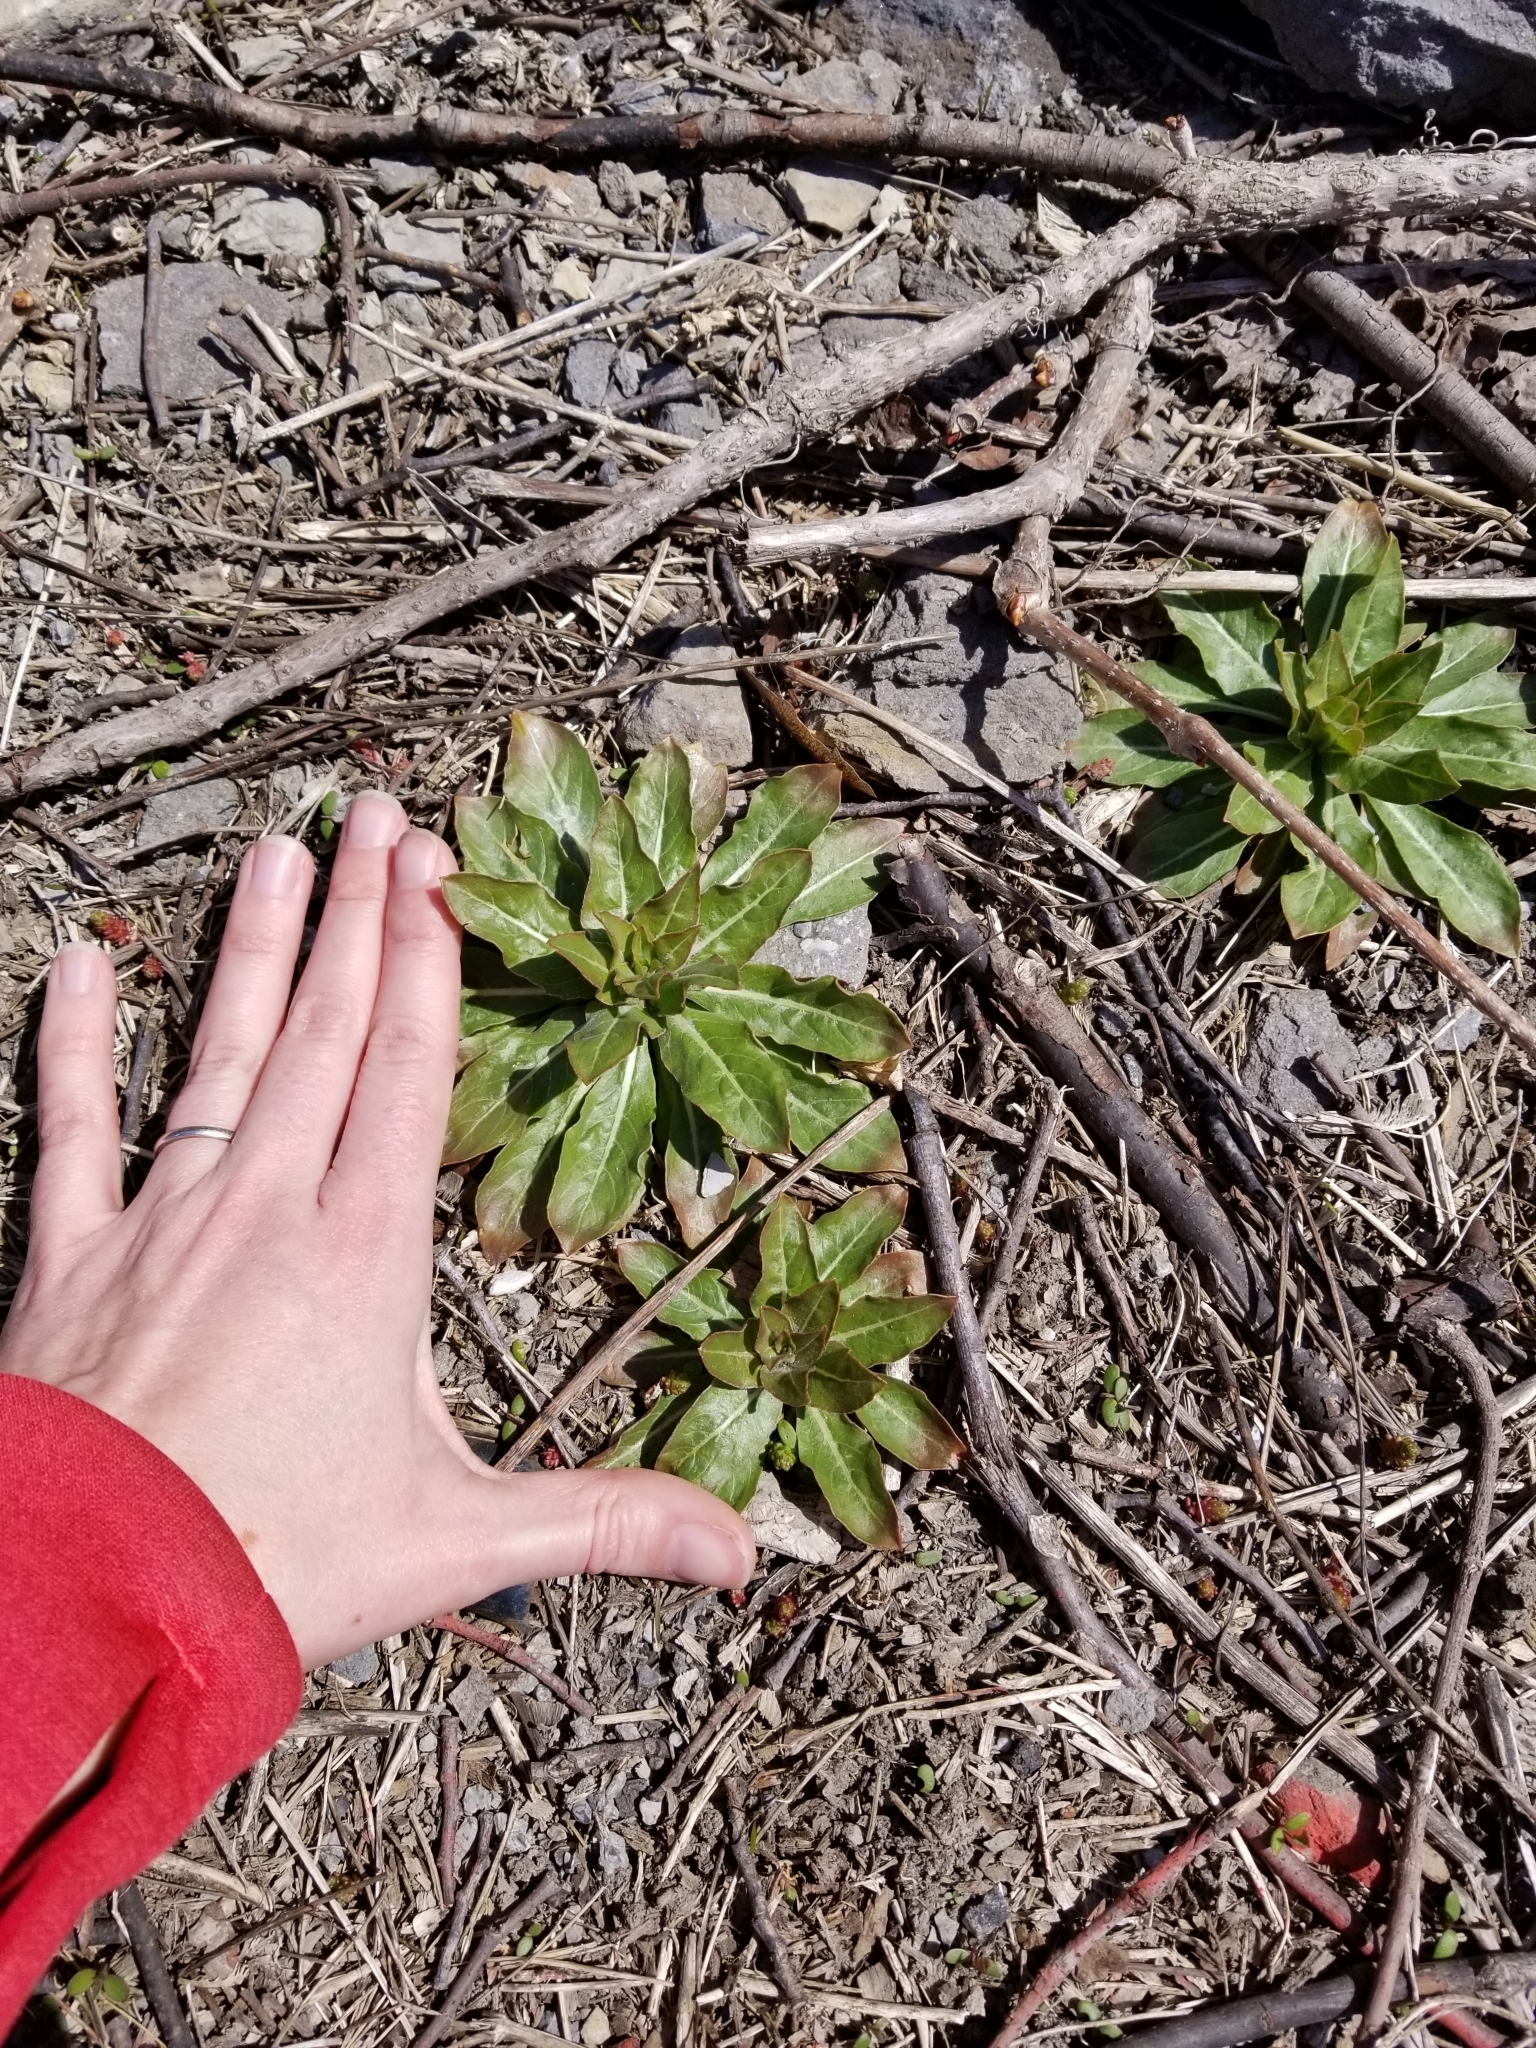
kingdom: Plantae
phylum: Tracheophyta
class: Magnoliopsida
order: Myrtales
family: Onagraceae
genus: Oenothera
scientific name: Oenothera biennis
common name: Common evening-primrose
